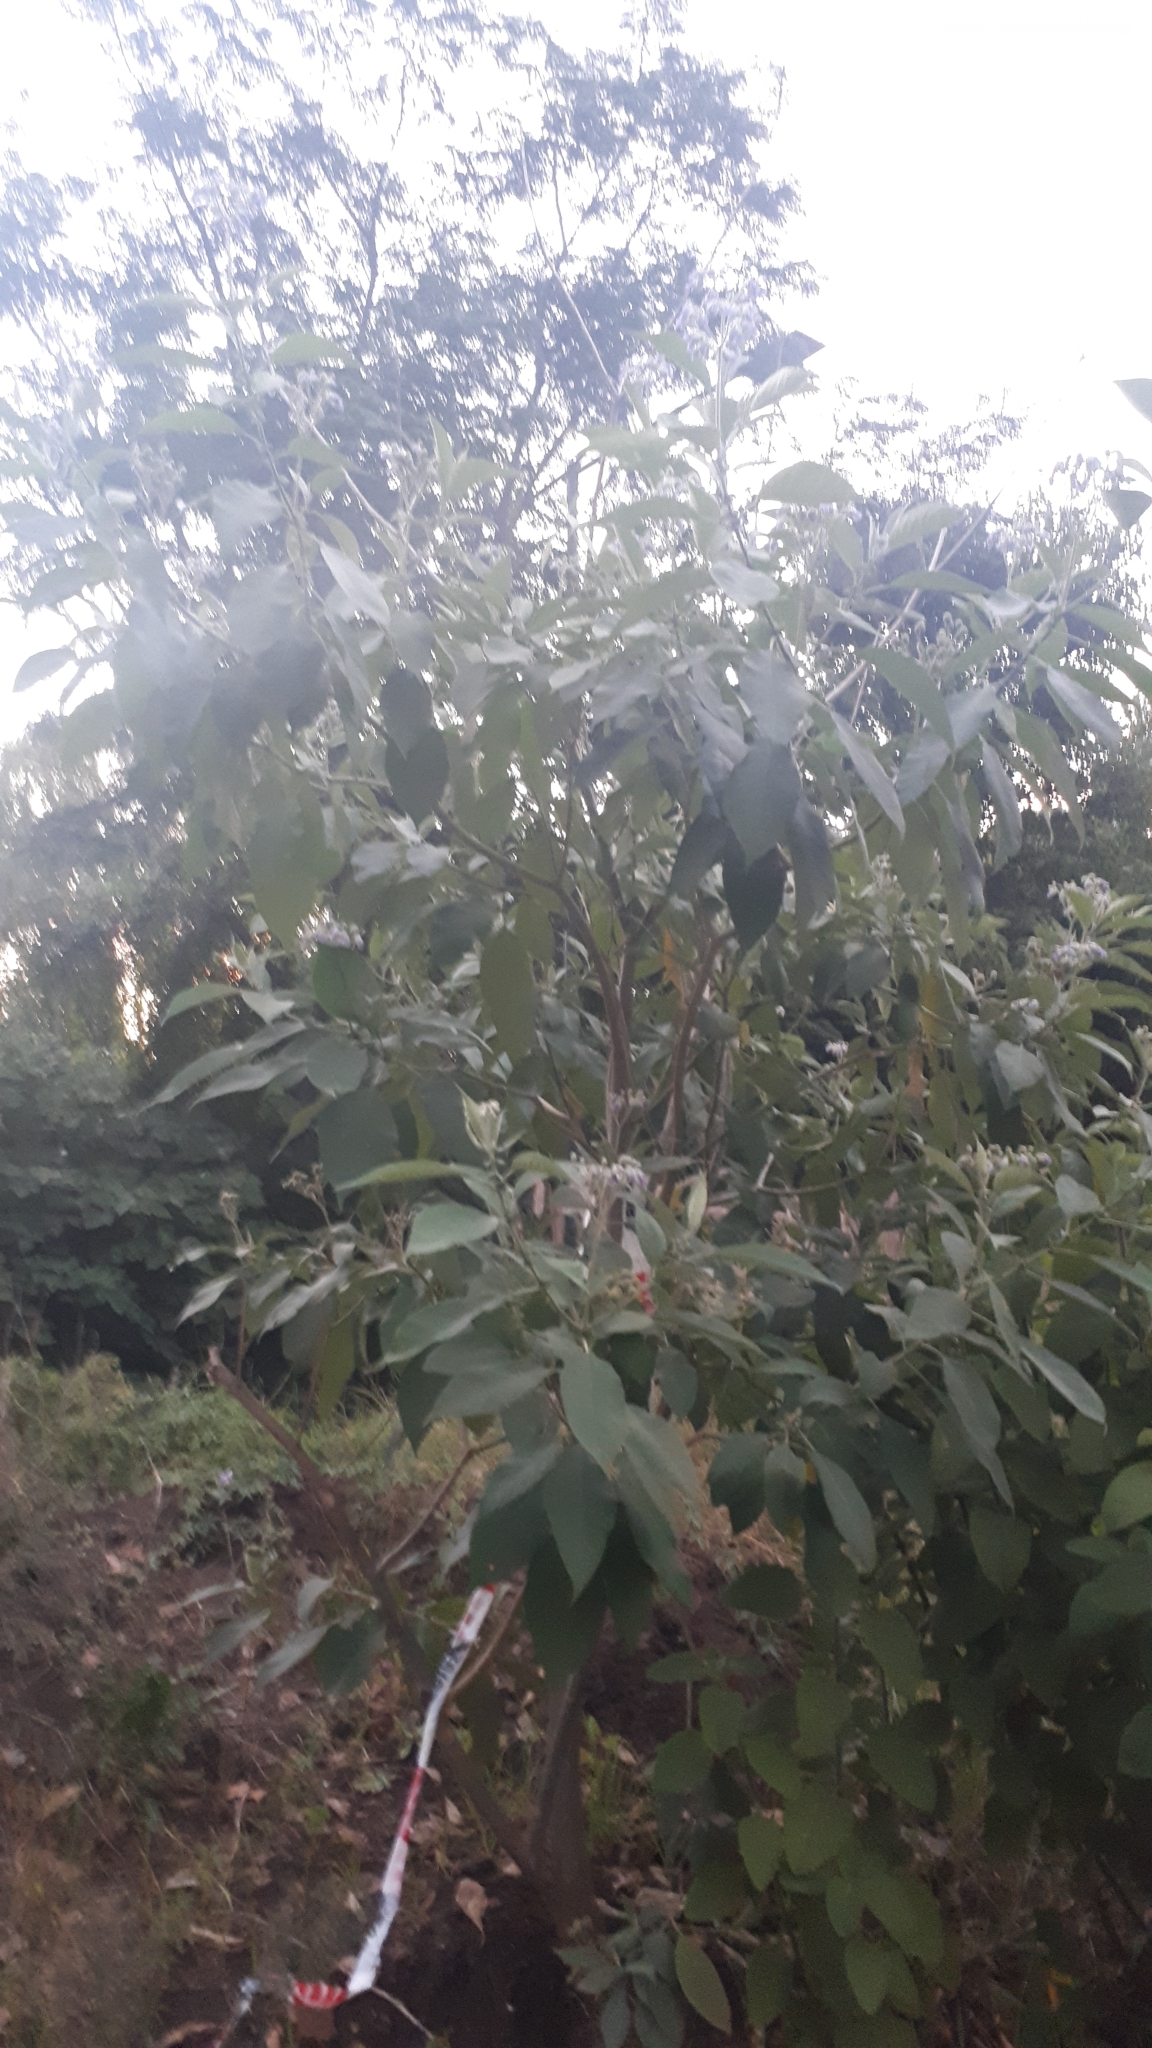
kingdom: Plantae
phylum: Tracheophyta
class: Magnoliopsida
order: Solanales
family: Solanaceae
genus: Solanum
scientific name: Solanum granulosoleprosum
